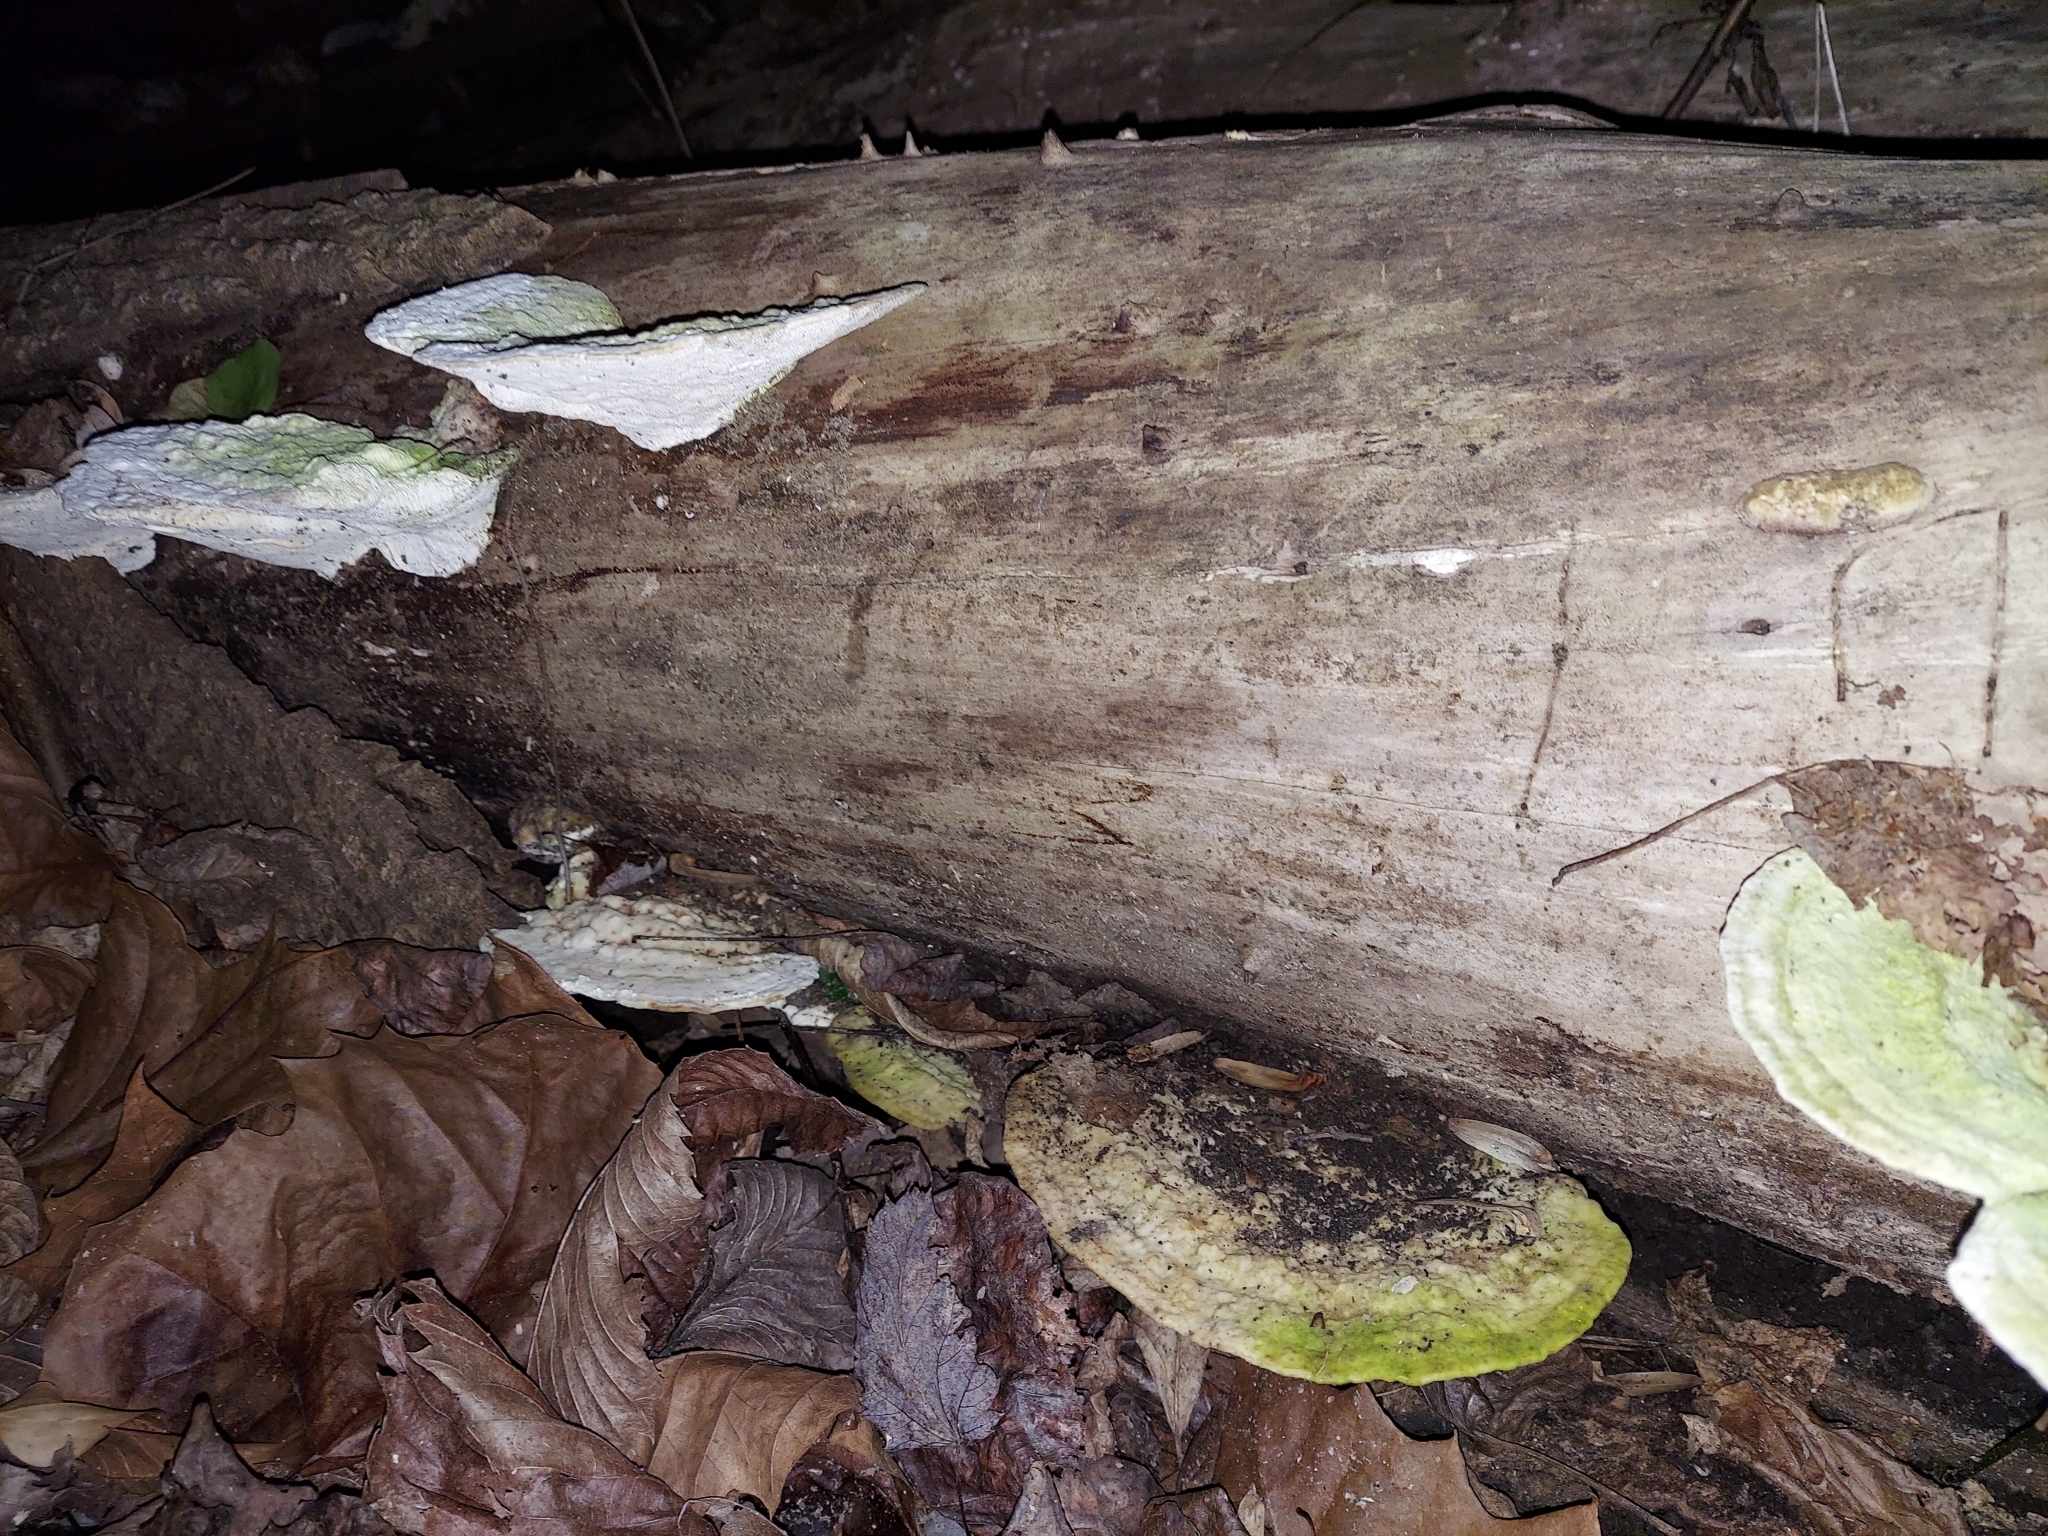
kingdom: Fungi
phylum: Basidiomycota
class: Agaricomycetes
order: Polyporales
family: Polyporaceae
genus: Trametes
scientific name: Trametes gibbosa
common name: Lumpy bracket
